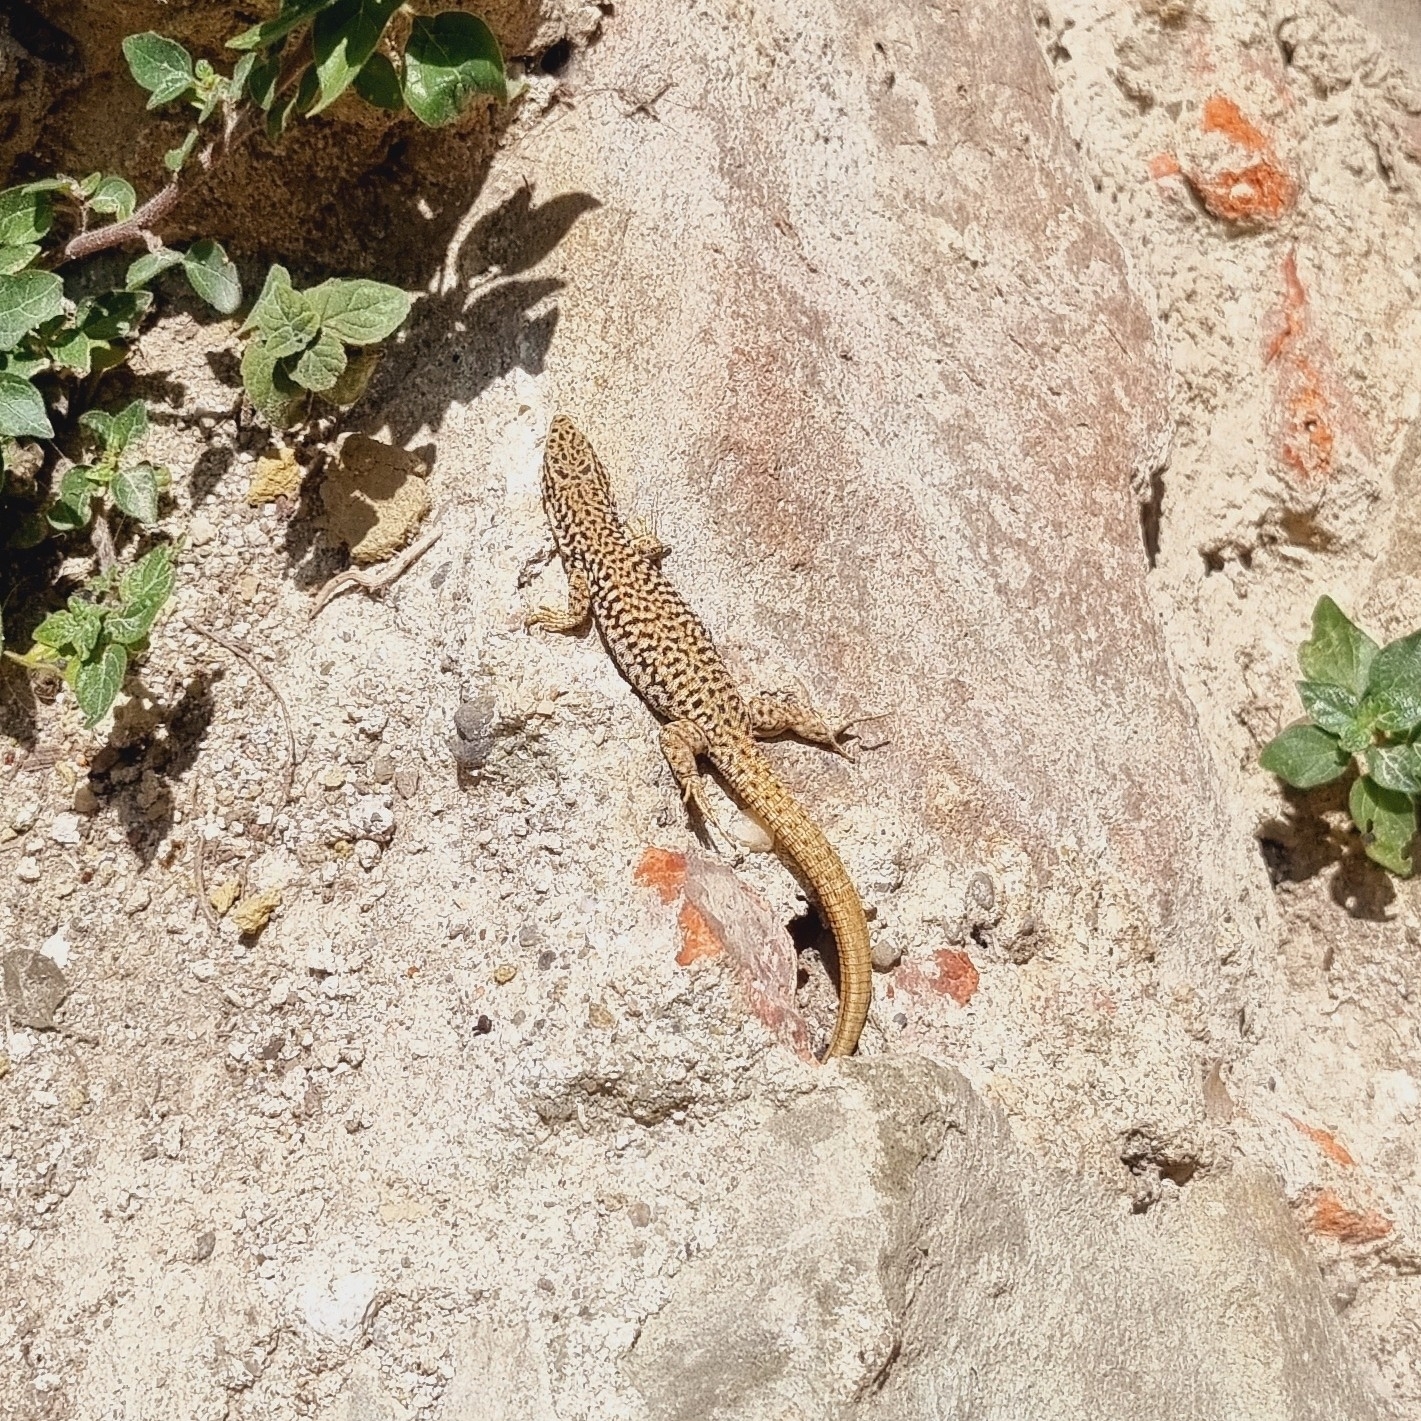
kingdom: Animalia
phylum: Chordata
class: Squamata
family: Lacertidae
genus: Podarcis
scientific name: Podarcis liolepis
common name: Catalonian wall lizard
